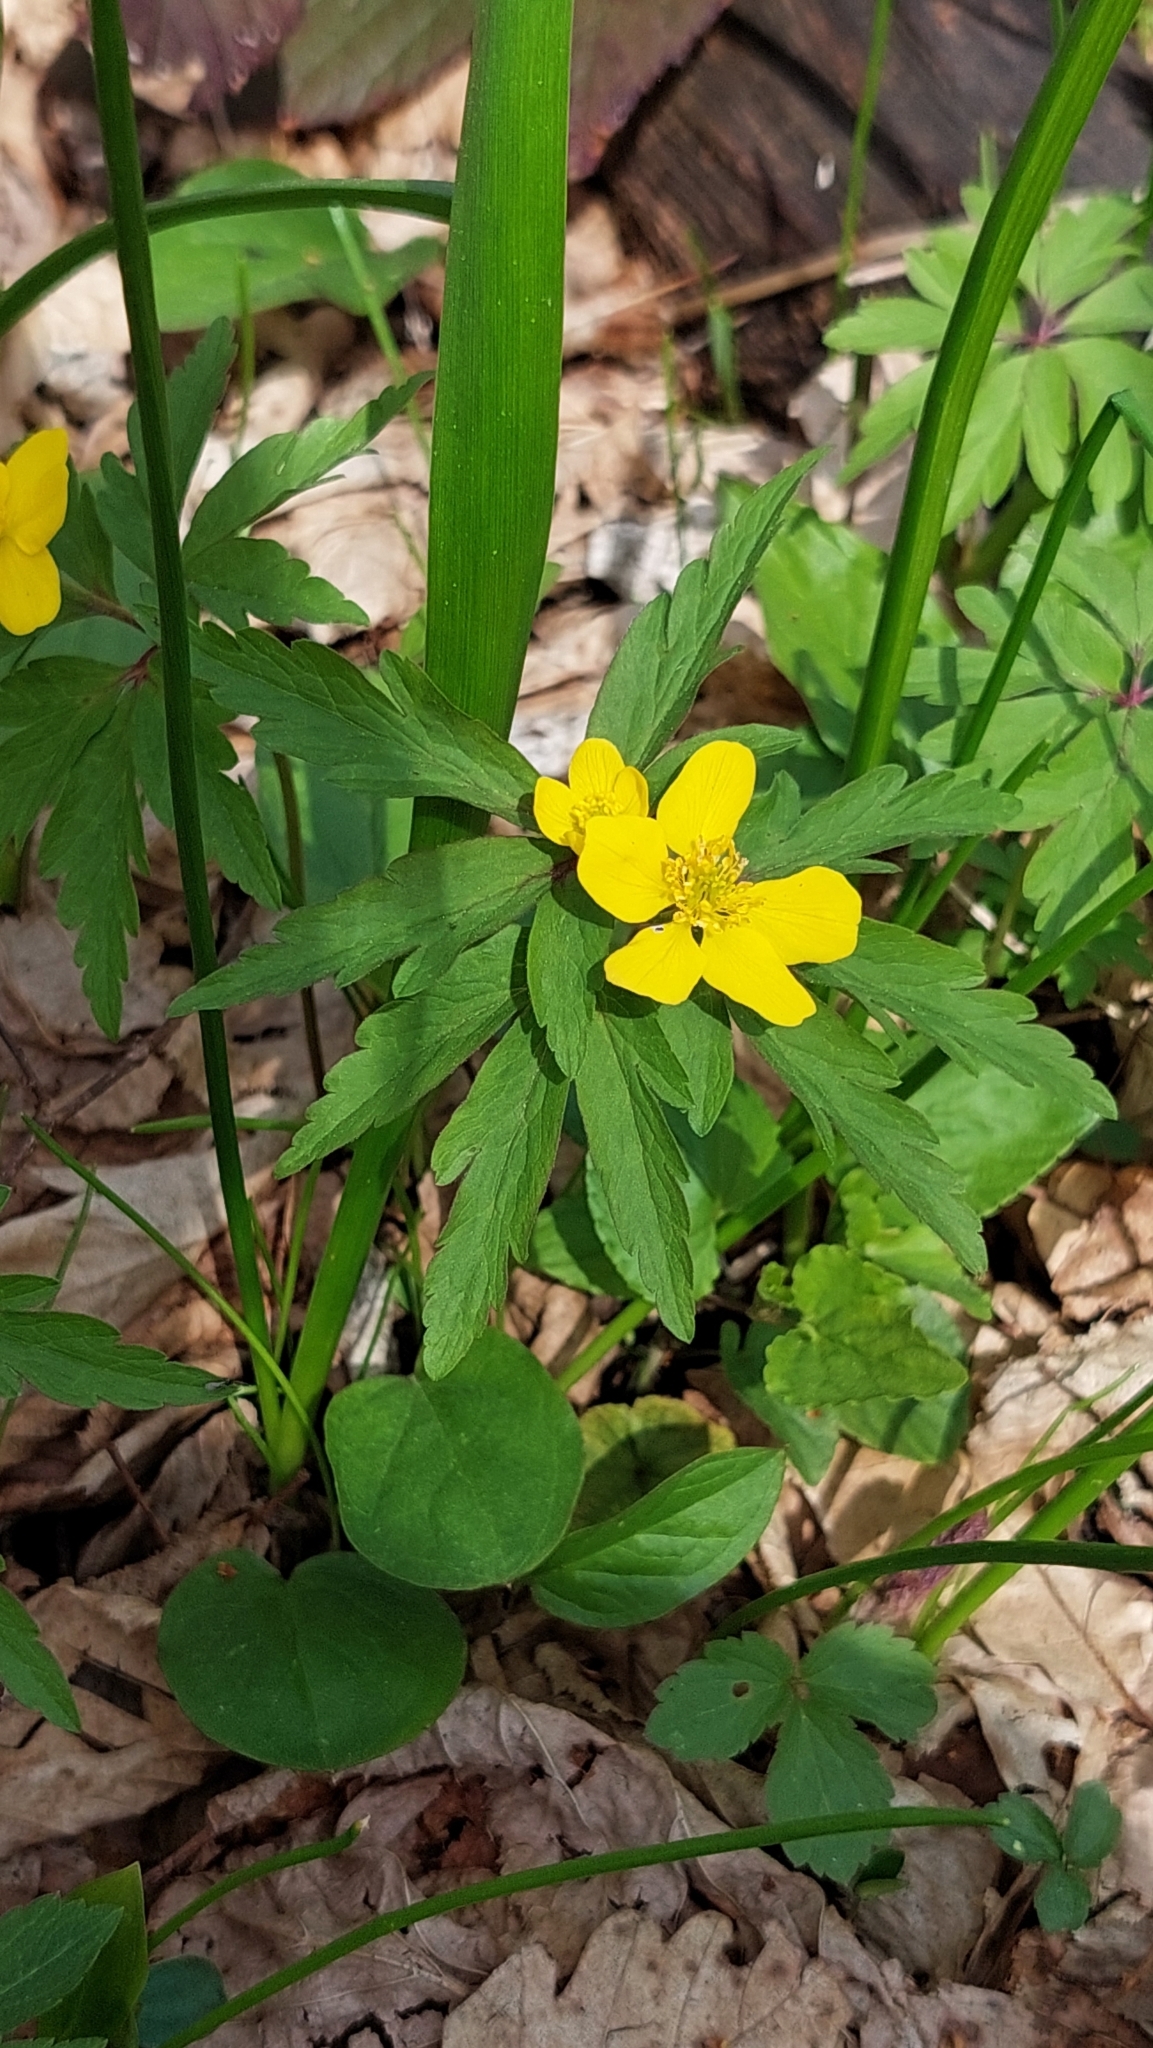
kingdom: Plantae
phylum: Tracheophyta
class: Magnoliopsida
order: Ranunculales
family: Ranunculaceae
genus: Anemone
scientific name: Anemone ranunculoides
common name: Yellow anemone
